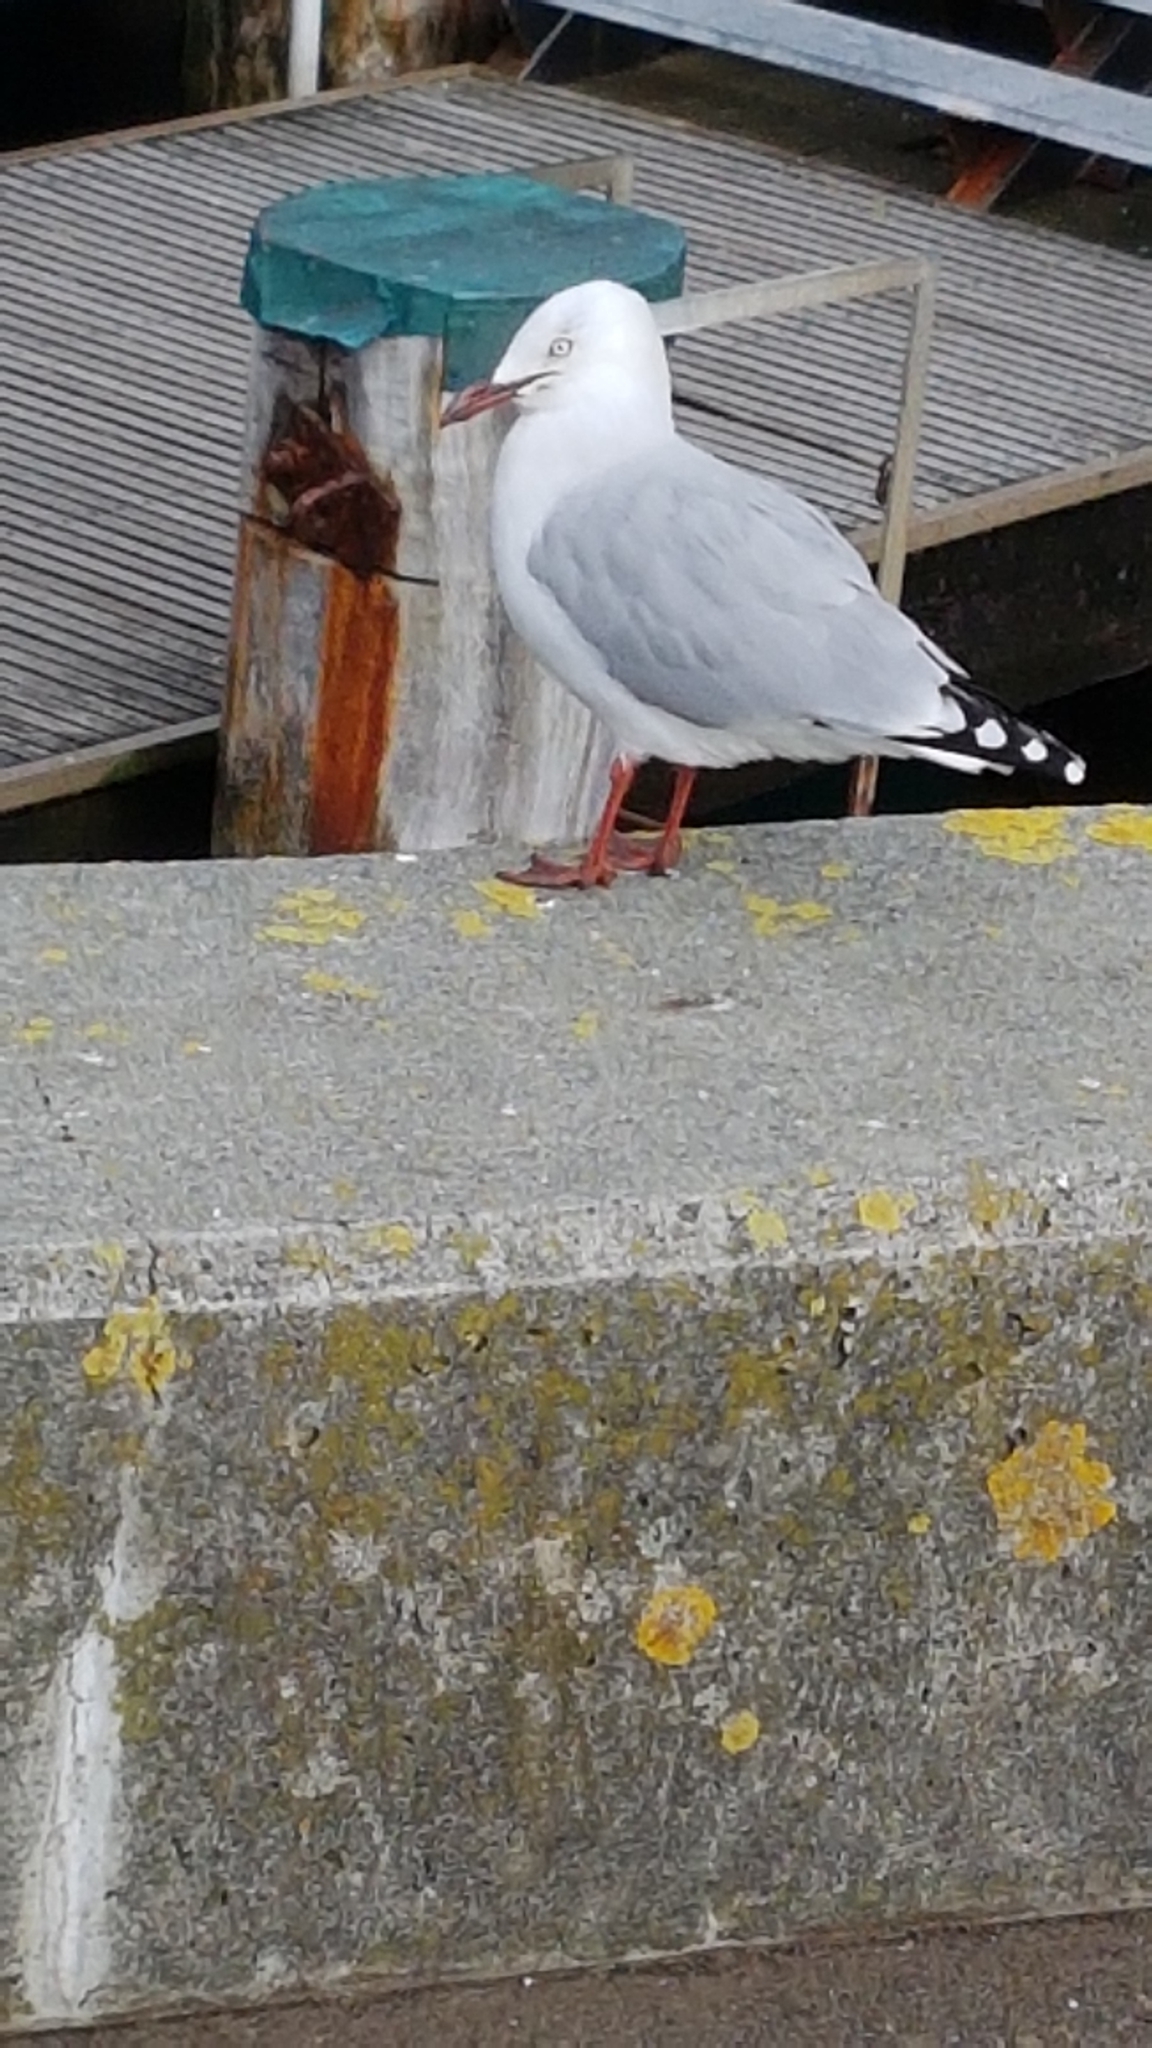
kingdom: Animalia
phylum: Chordata
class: Aves
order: Charadriiformes
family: Laridae
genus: Chroicocephalus
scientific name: Chroicocephalus novaehollandiae
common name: Silver gull
